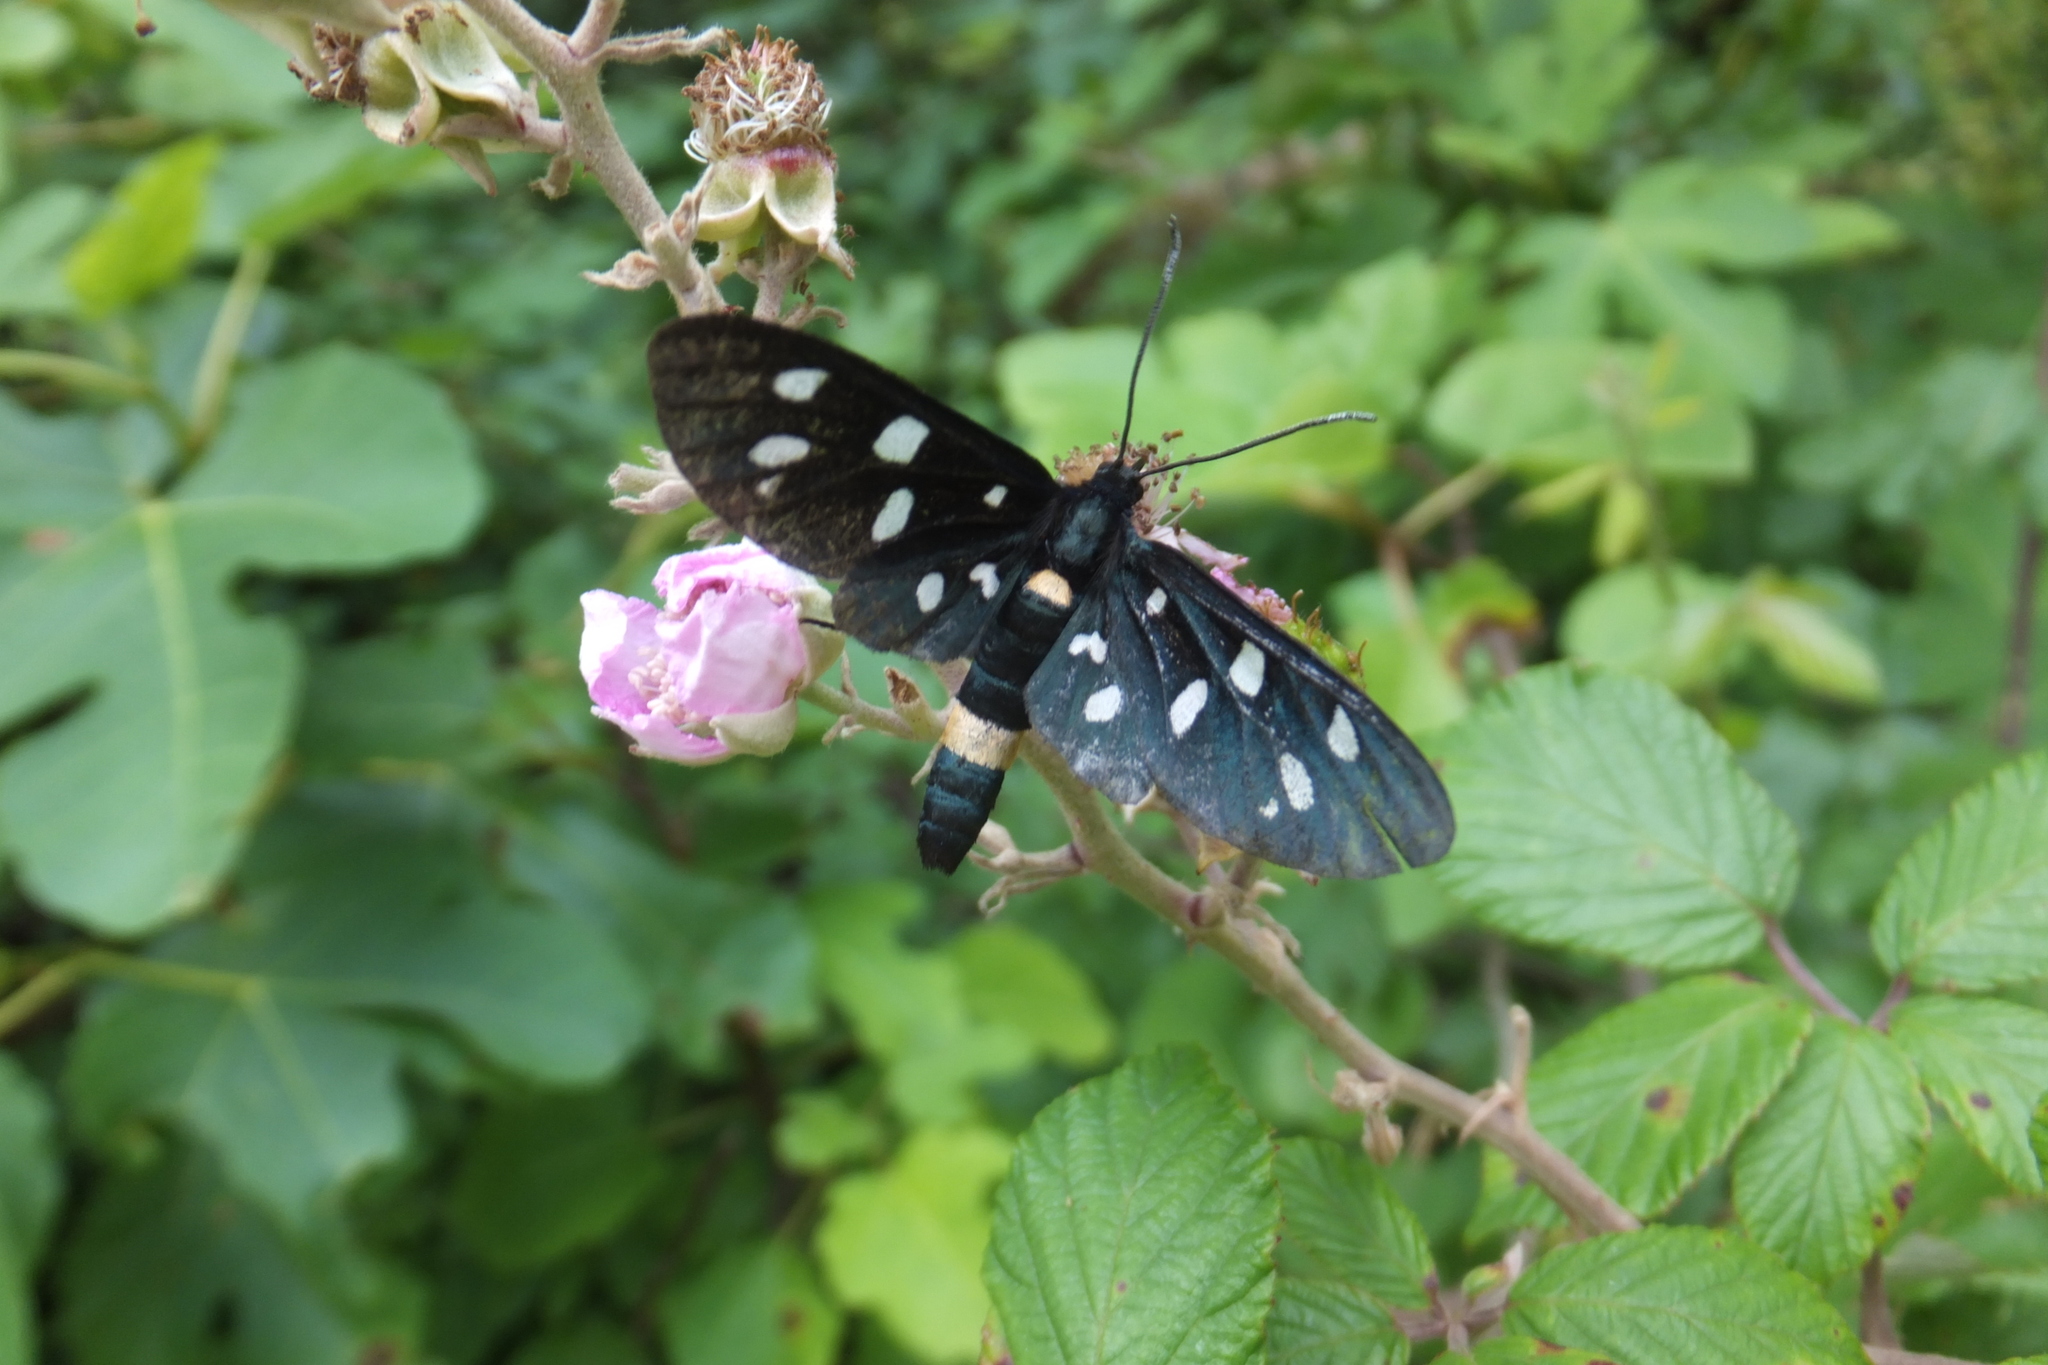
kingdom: Animalia
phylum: Arthropoda
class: Insecta
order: Lepidoptera
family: Erebidae
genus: Amata
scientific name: Amata phegea
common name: Nine-spotted
